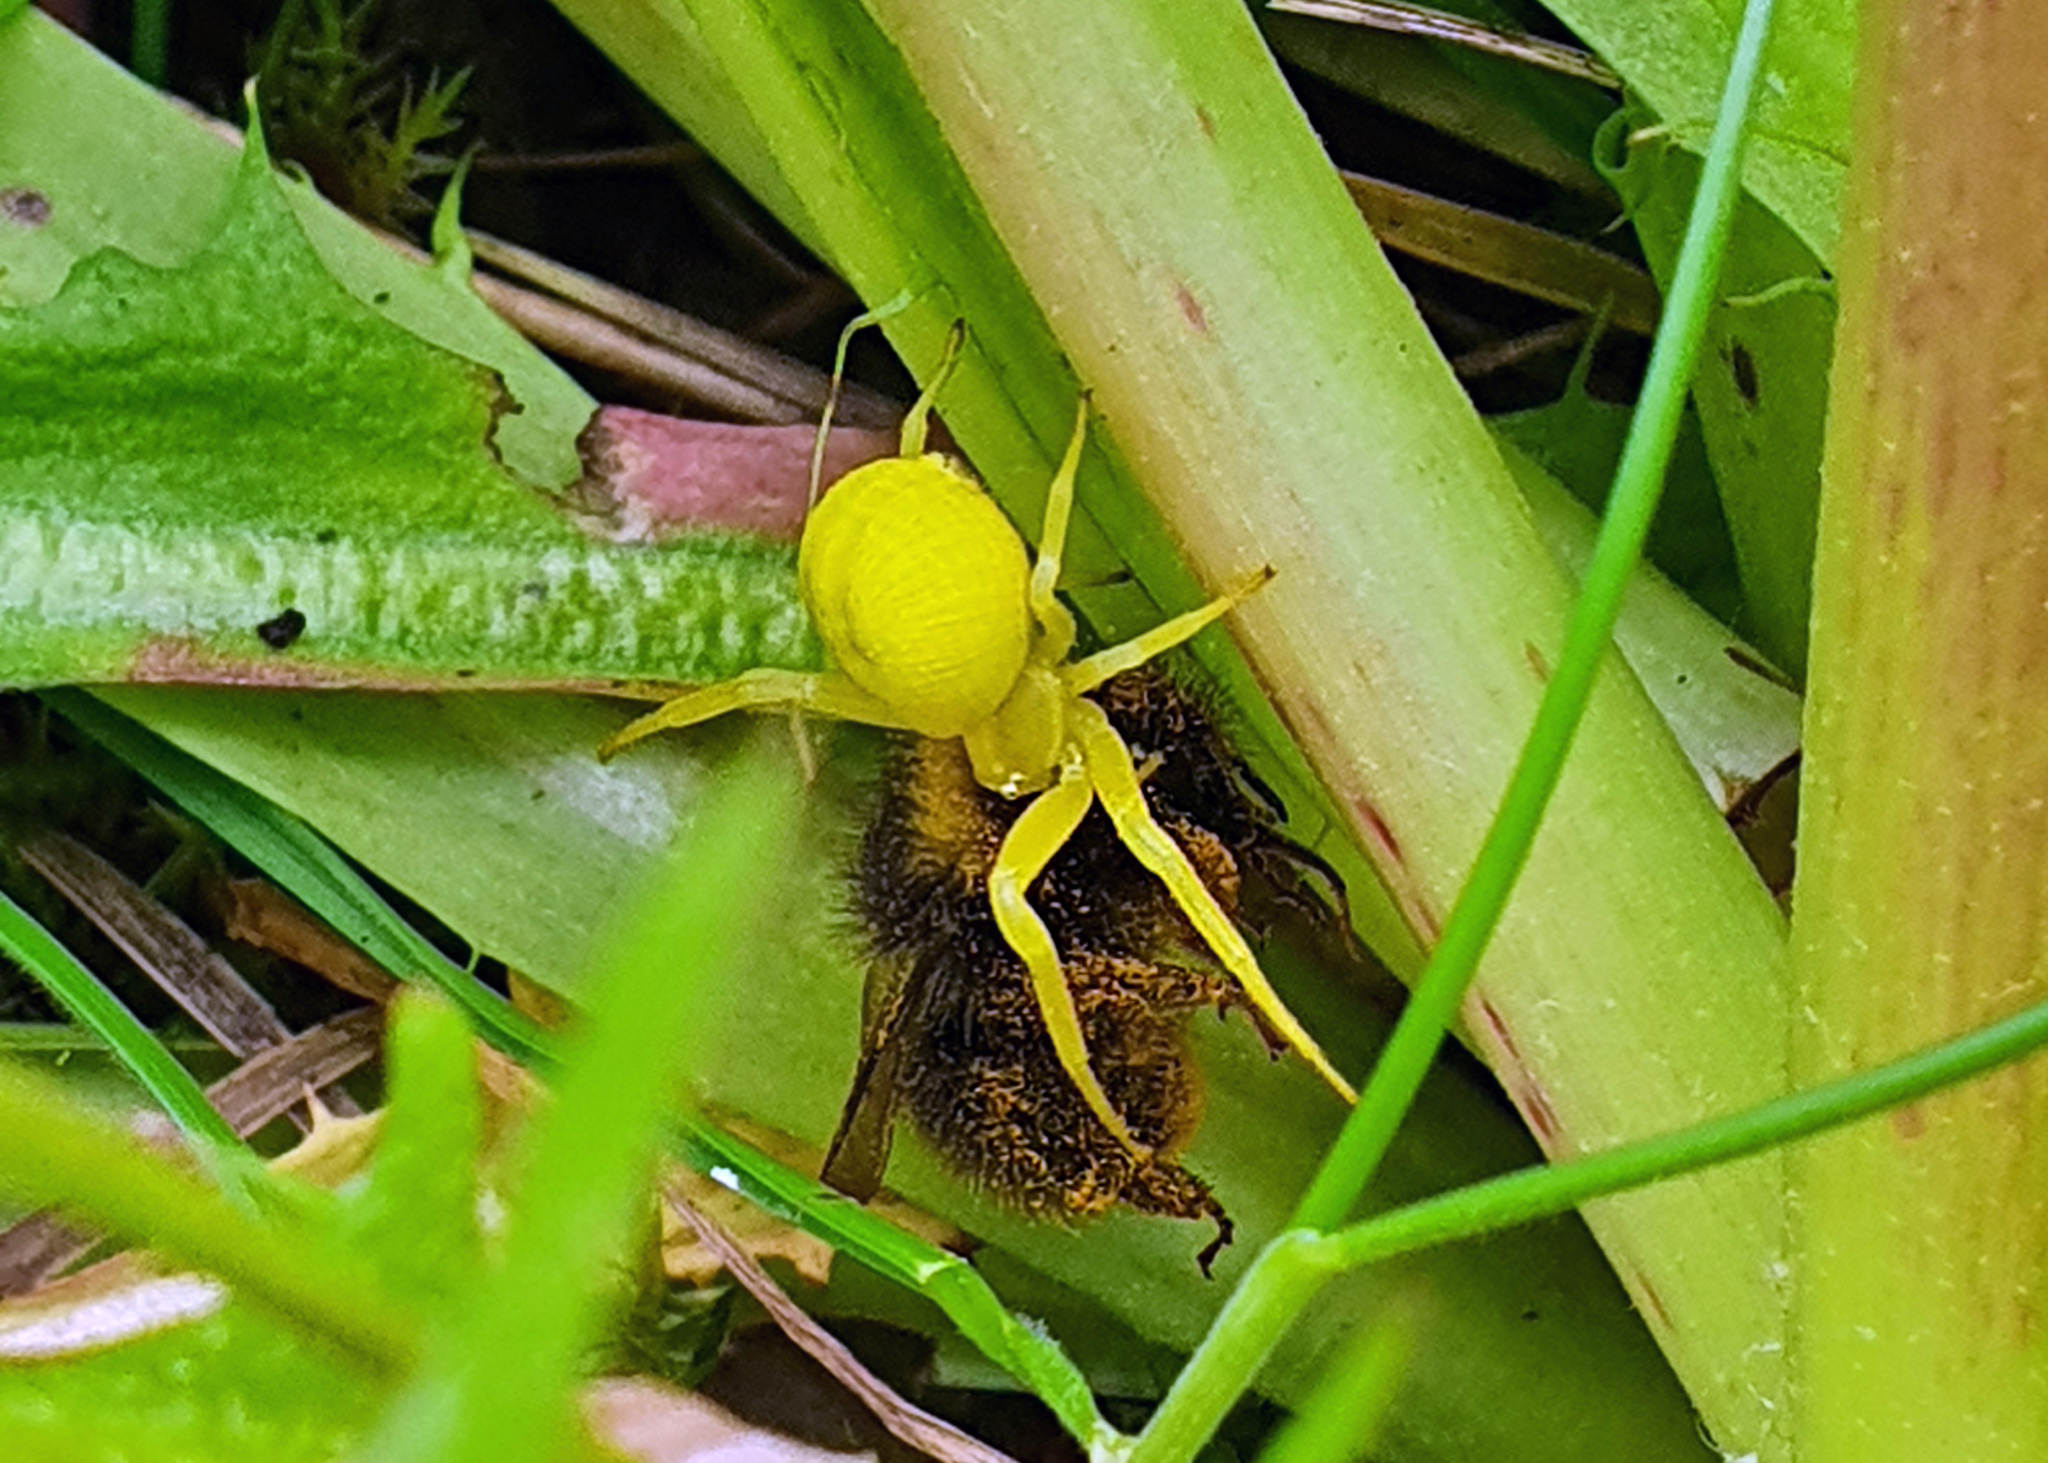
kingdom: Animalia
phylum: Arthropoda
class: Arachnida
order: Araneae
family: Thomisidae
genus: Misumena
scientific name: Misumena vatia
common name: Goldenrod crab spider
